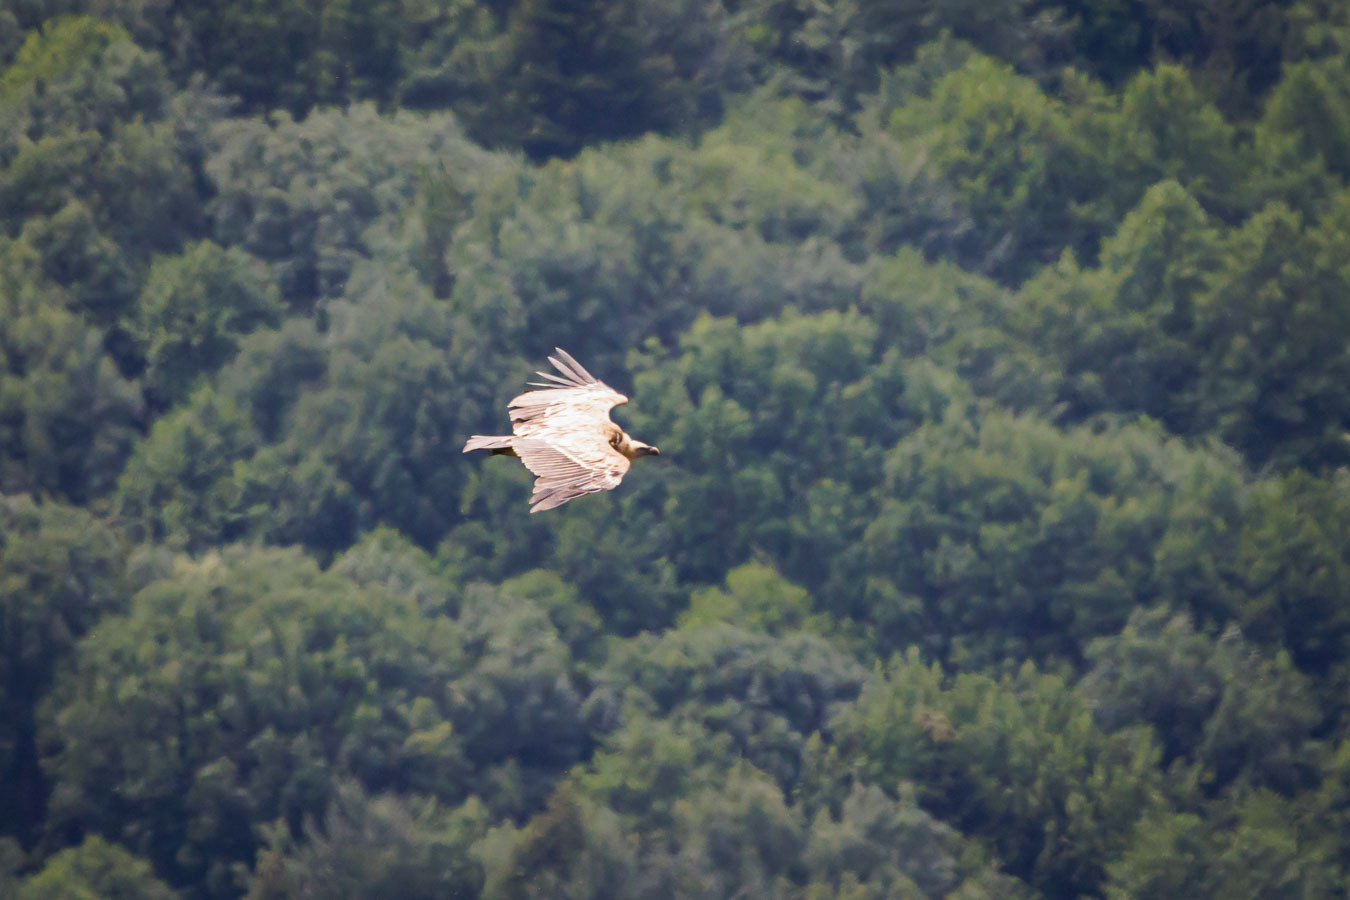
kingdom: Animalia
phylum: Chordata
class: Aves
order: Accipitriformes
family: Accipitridae
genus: Gyps
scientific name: Gyps fulvus
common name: Griffon vulture
